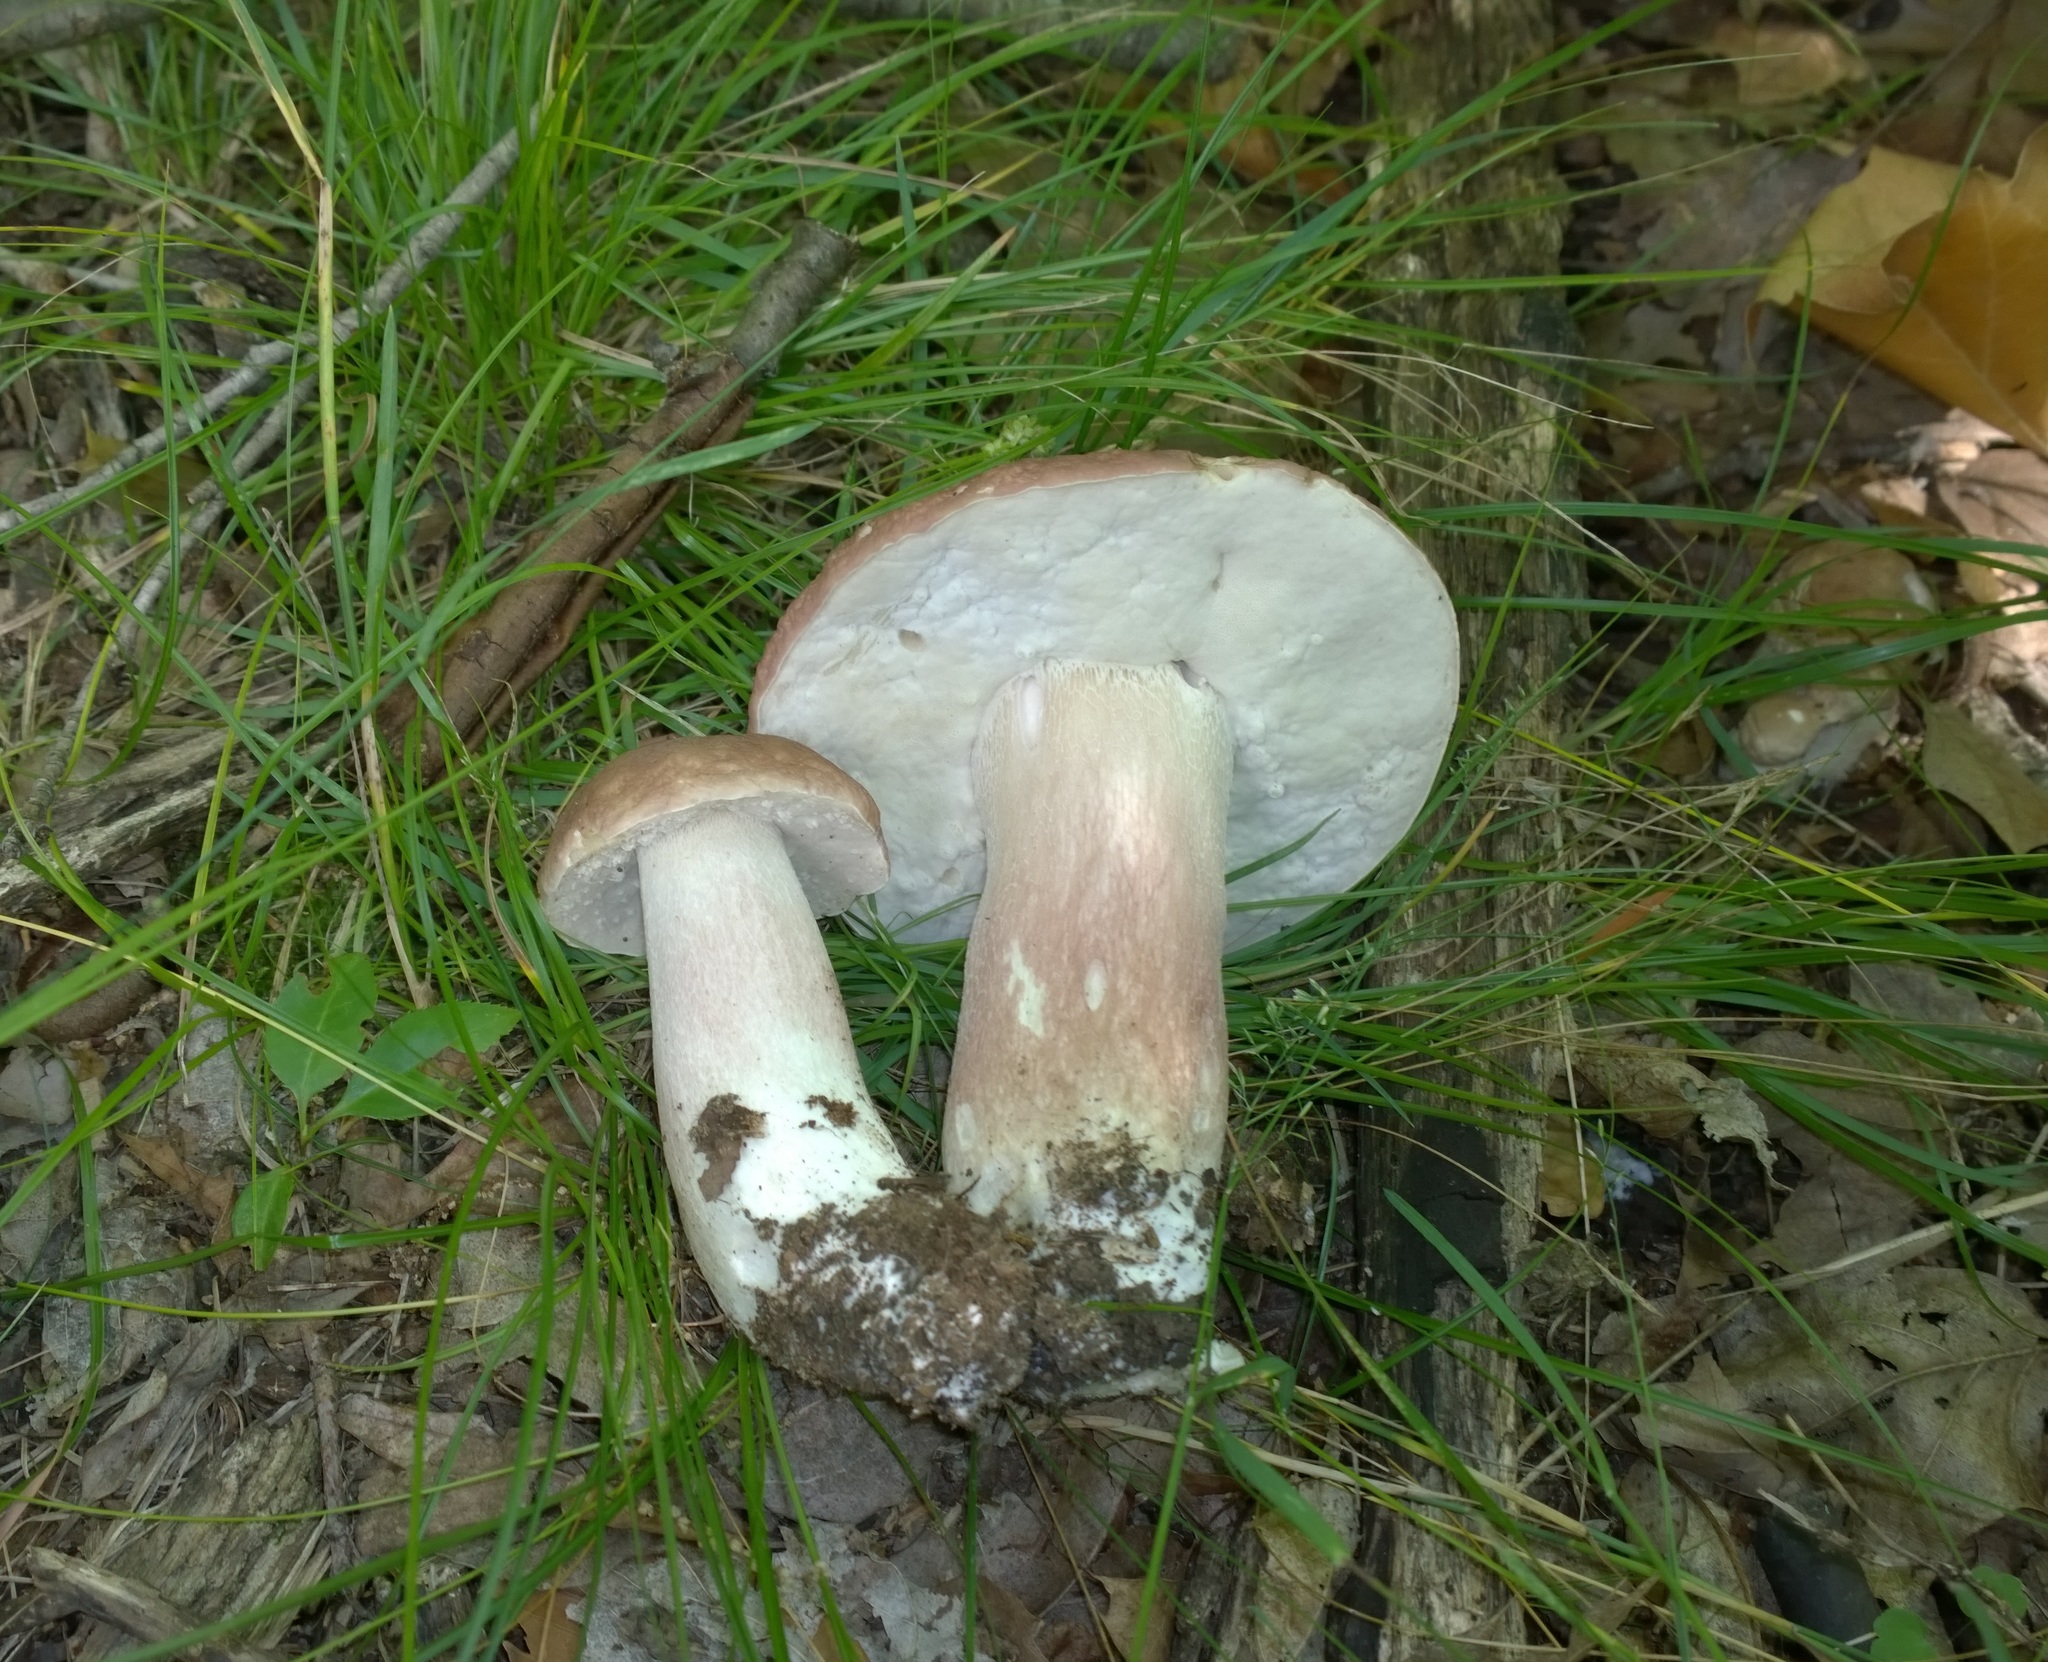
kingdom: Fungi
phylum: Basidiomycota
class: Agaricomycetes
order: Boletales
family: Boletaceae
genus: Xanthoconium
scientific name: Xanthoconium separans
